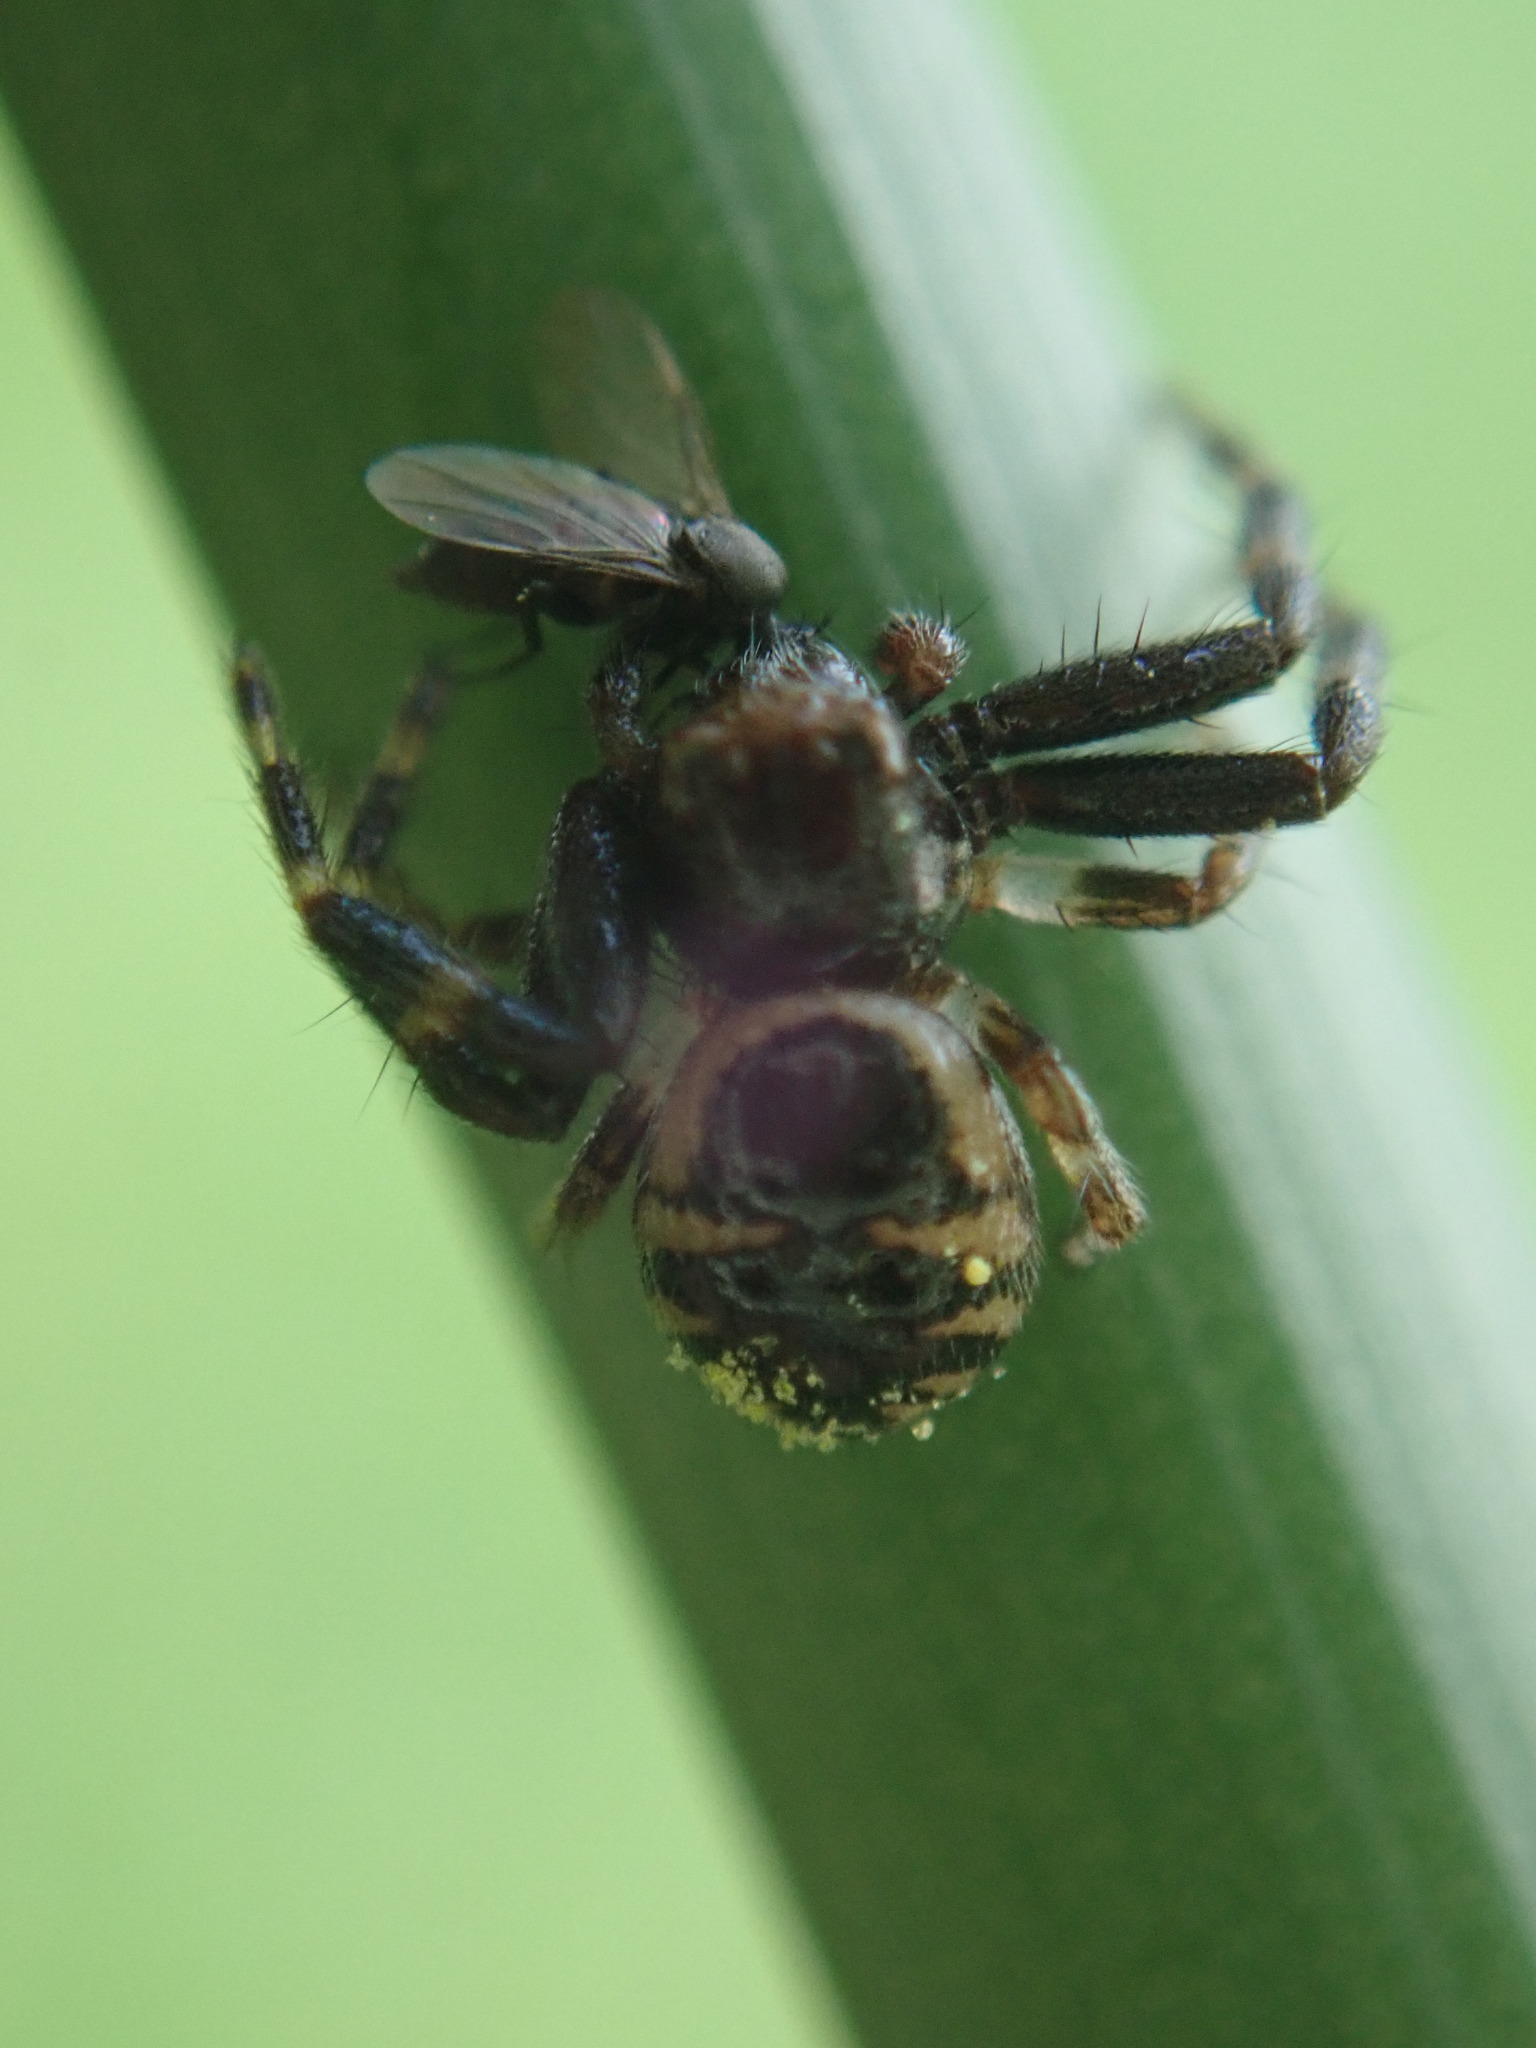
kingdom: Animalia
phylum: Arthropoda
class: Arachnida
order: Araneae
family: Thomisidae
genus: Synema
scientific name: Synema globosum
